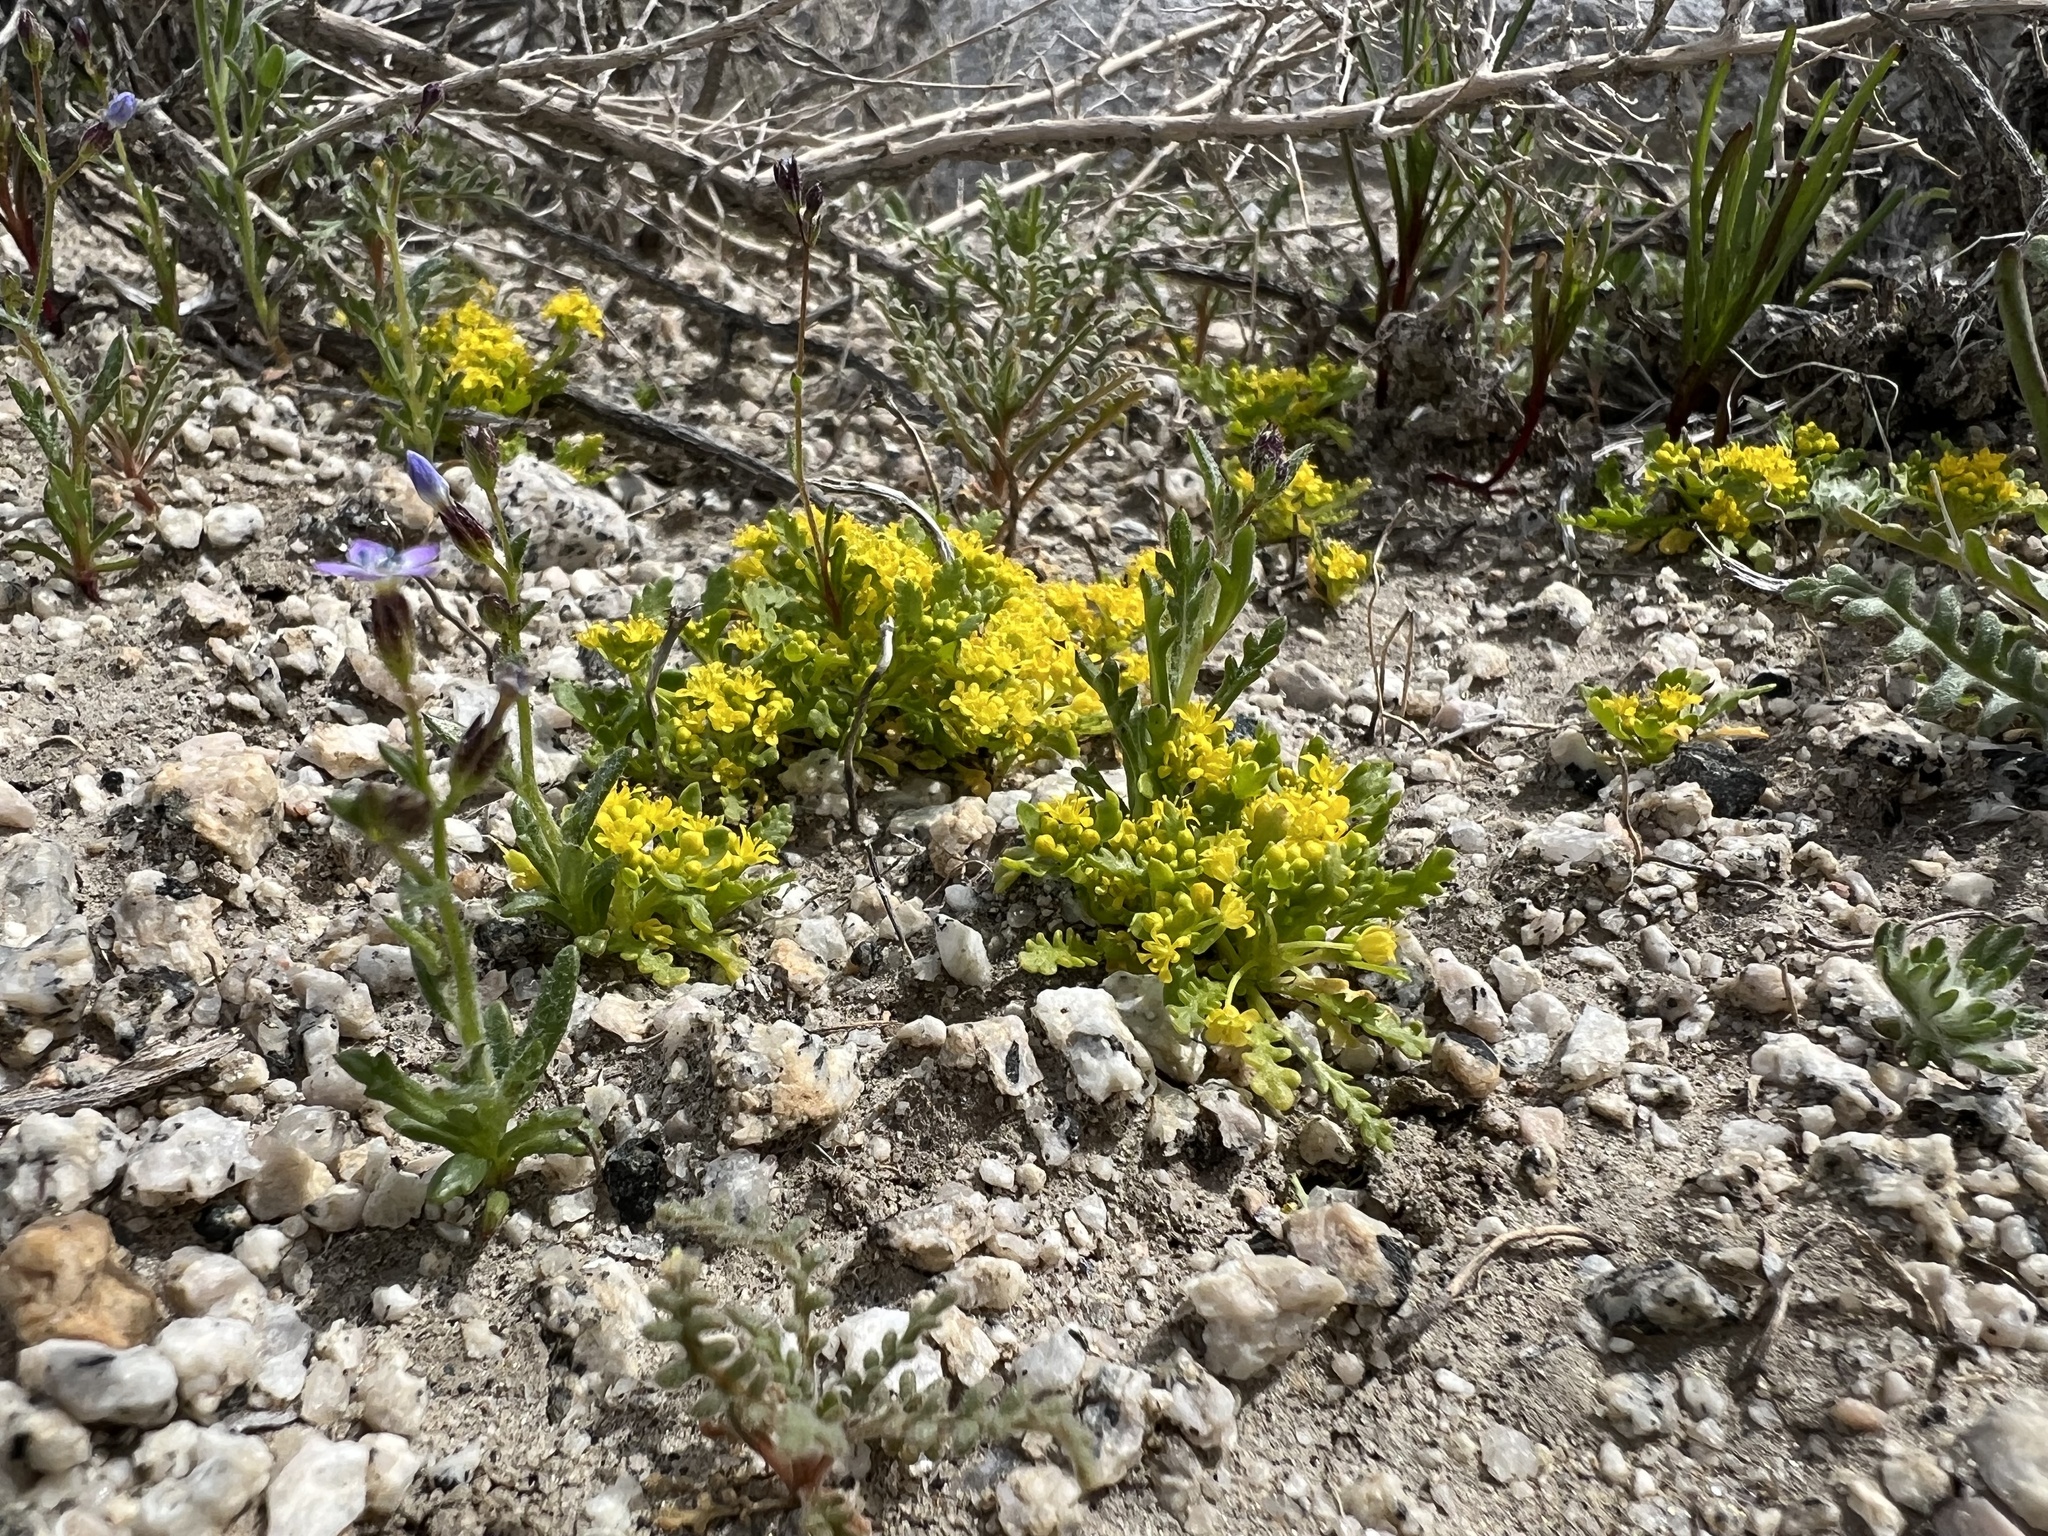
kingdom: Plantae
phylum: Tracheophyta
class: Magnoliopsida
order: Brassicales
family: Brassicaceae
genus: Lepidium
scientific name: Lepidium flavum
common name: Yellow pepperwort
